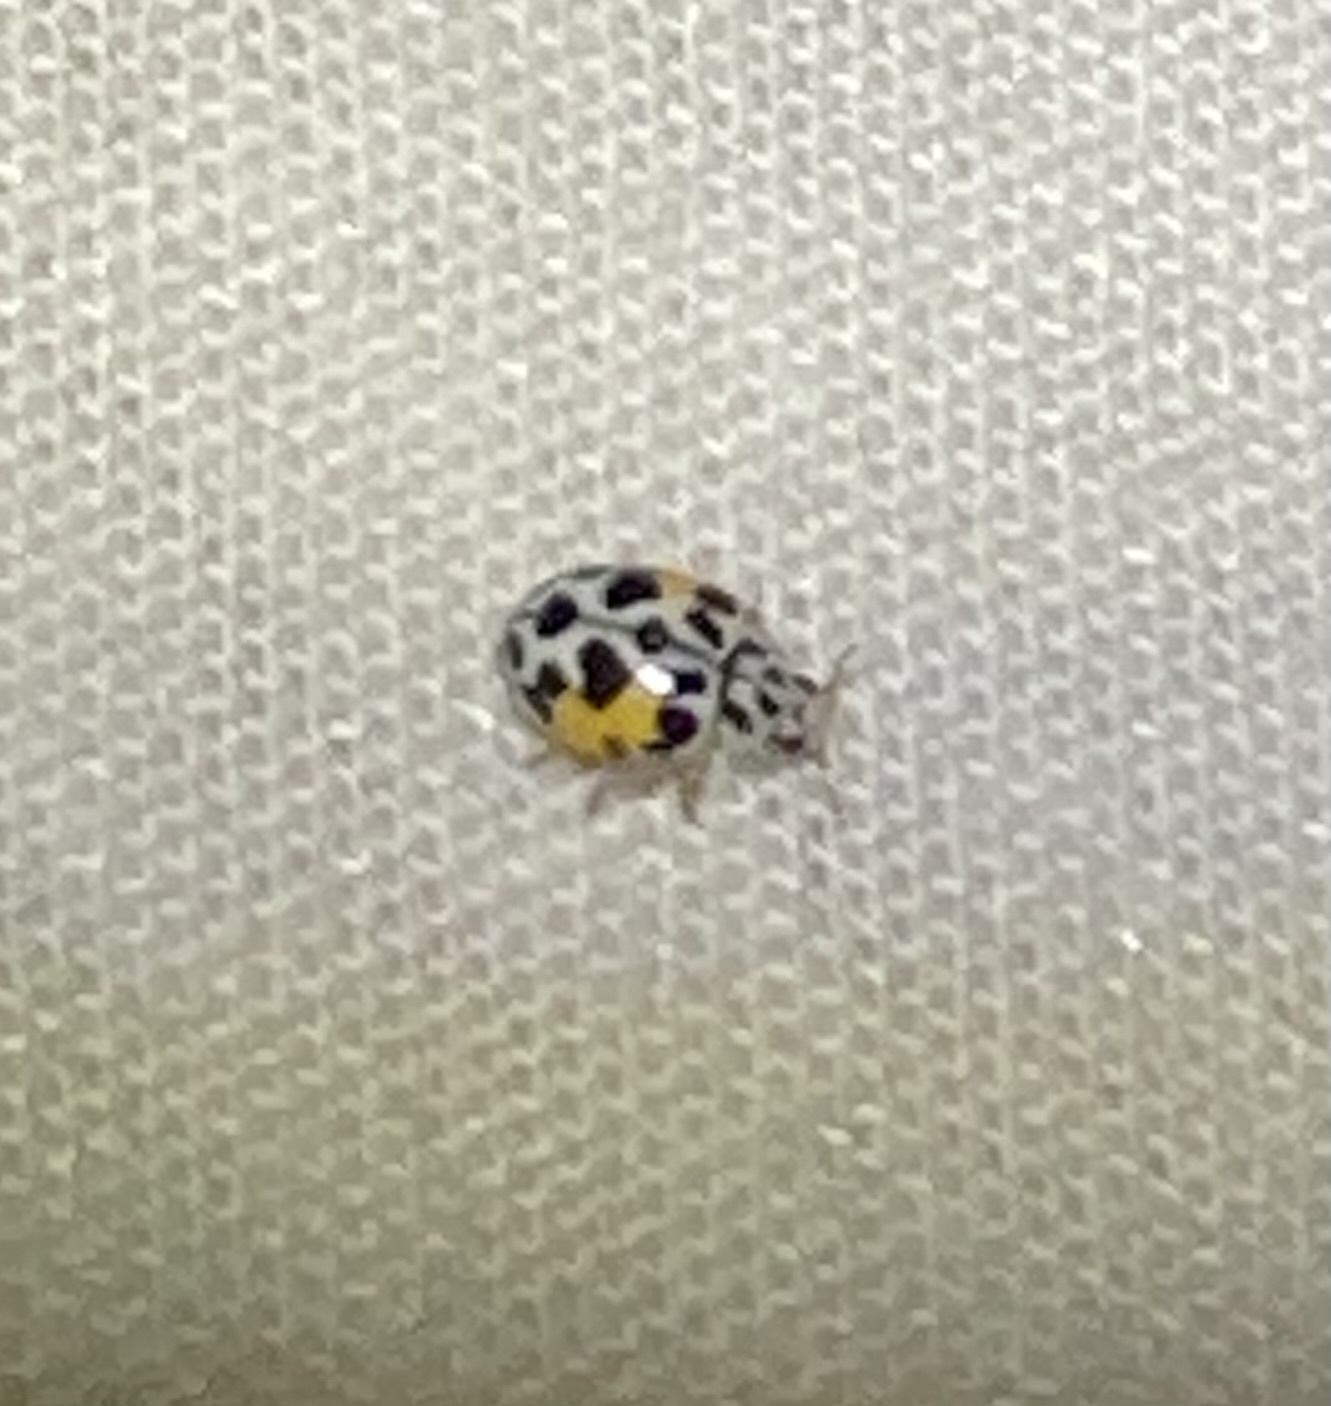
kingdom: Animalia
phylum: Arthropoda
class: Insecta
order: Coleoptera
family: Coccinellidae
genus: Psyllobora
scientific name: Psyllobora nana
